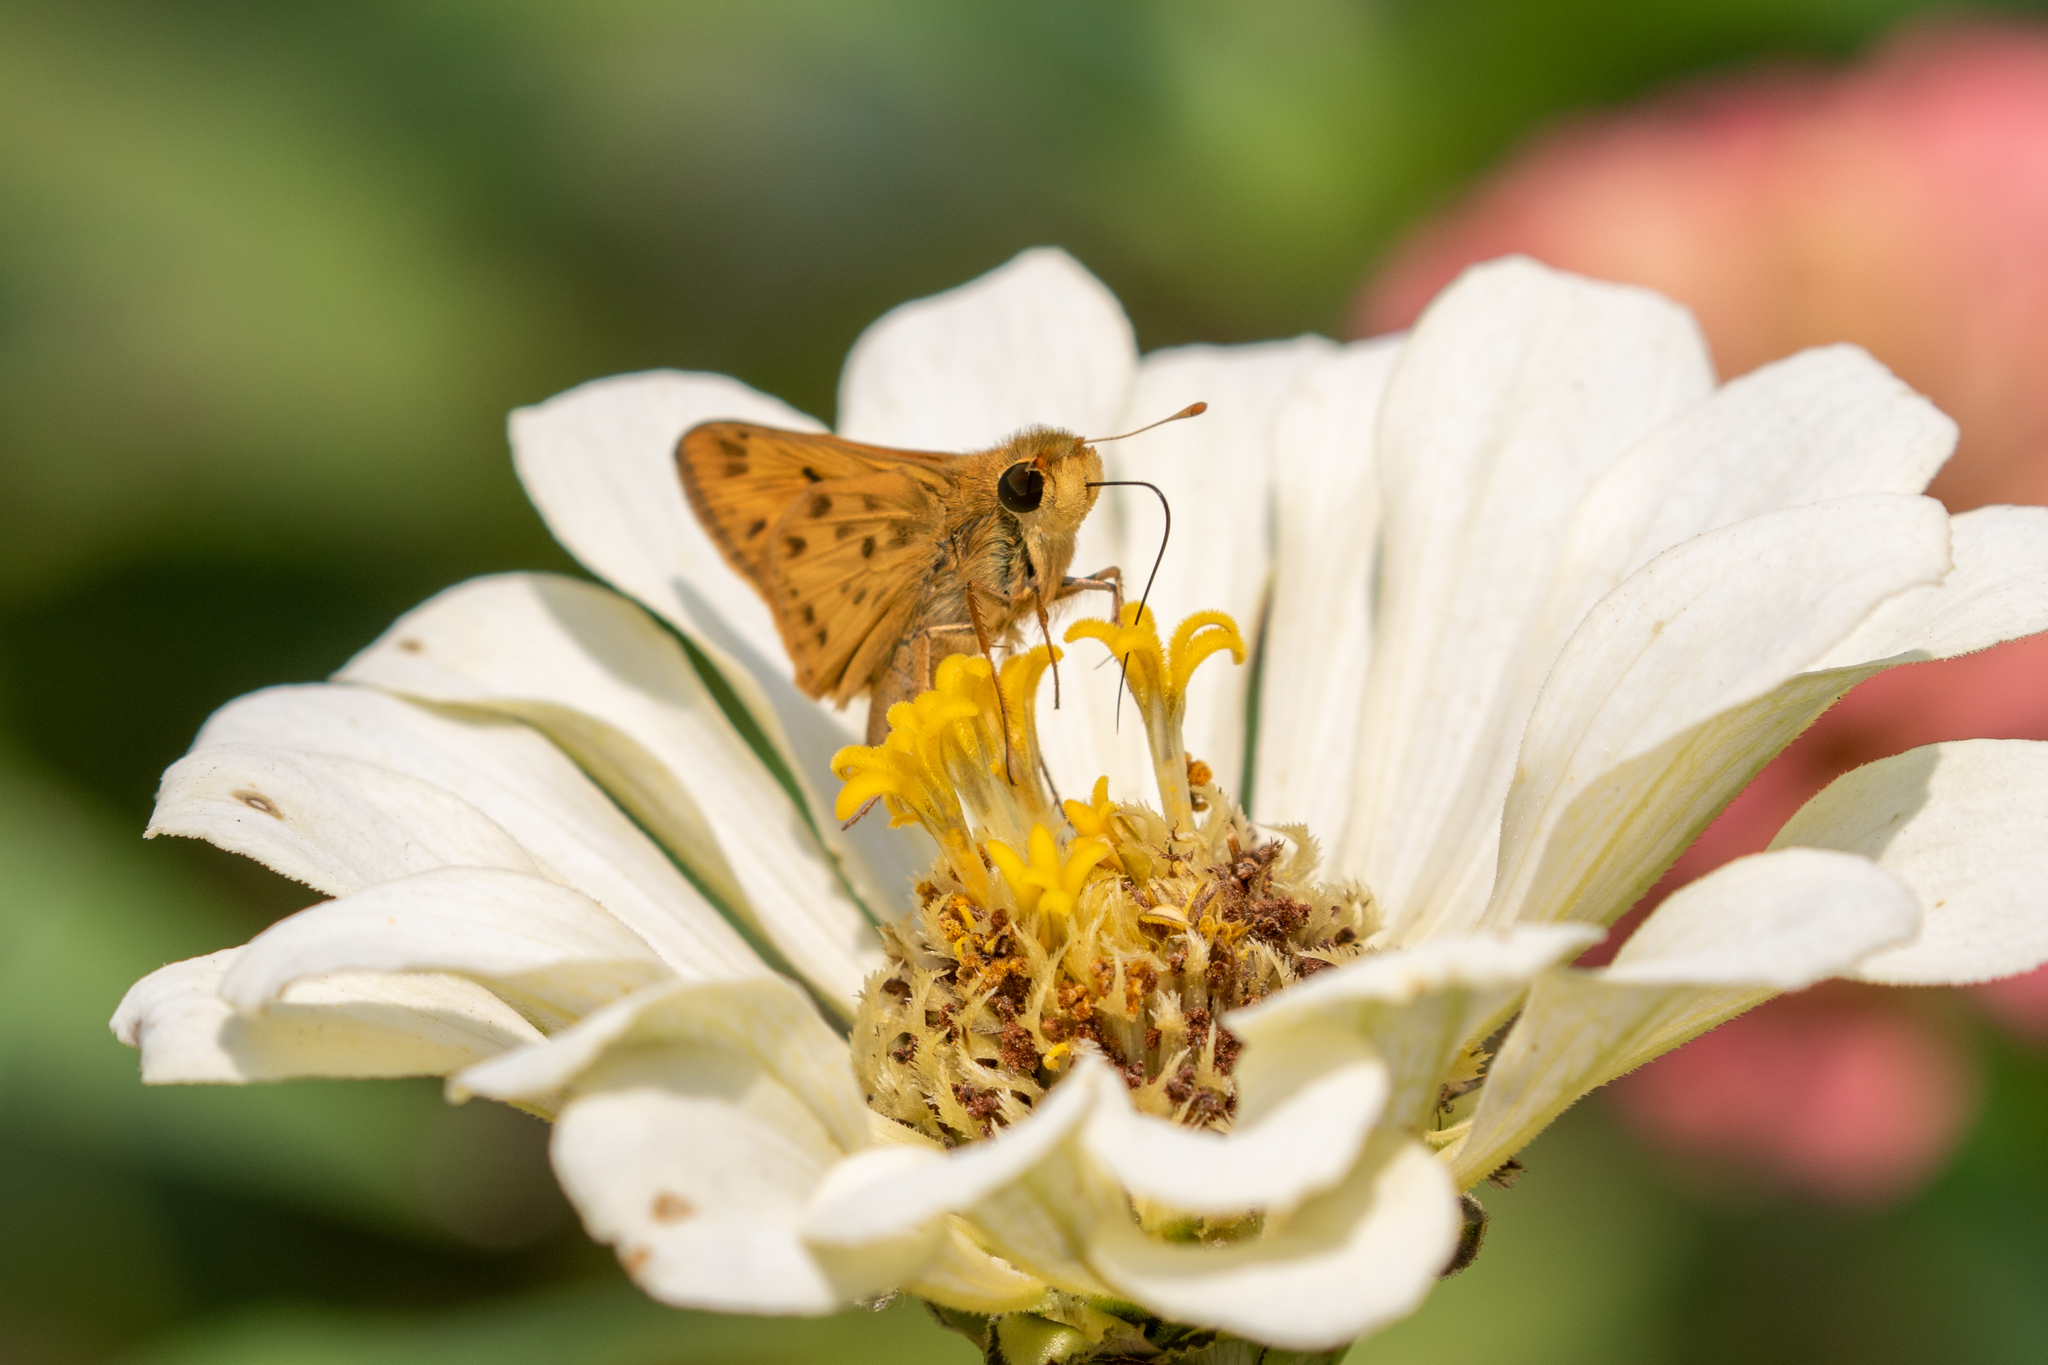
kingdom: Animalia
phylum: Arthropoda
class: Insecta
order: Lepidoptera
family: Hesperiidae
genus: Hylephila
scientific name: Hylephila phyleus
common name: Fiery skipper
